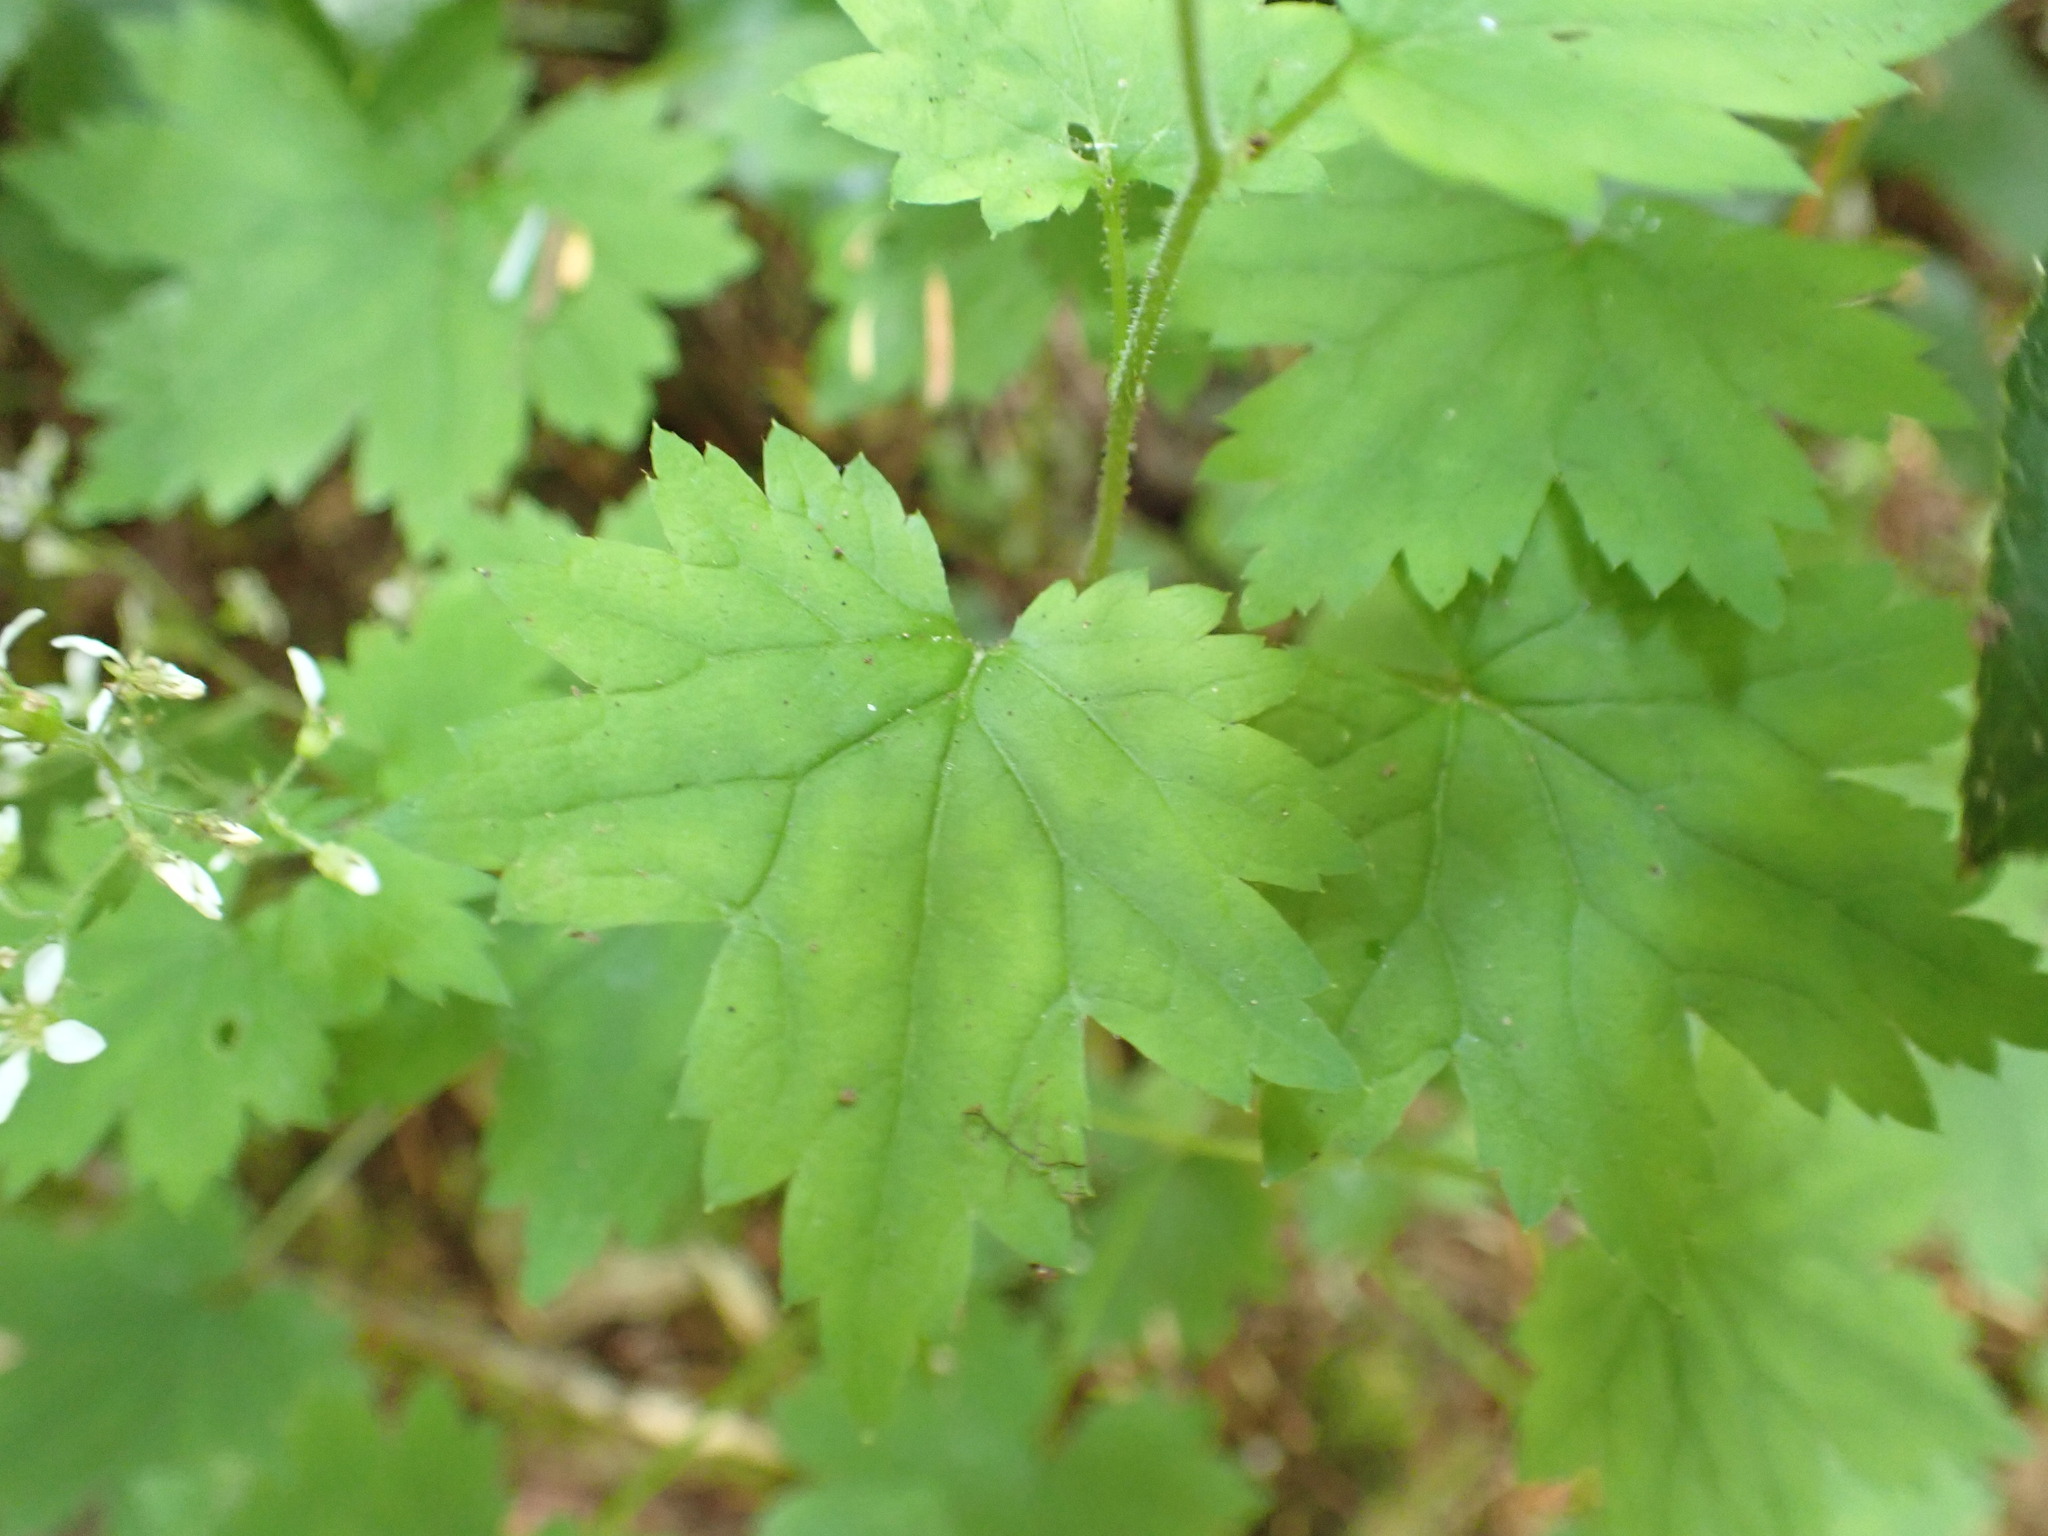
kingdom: Plantae
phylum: Tracheophyta
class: Magnoliopsida
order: Saxifragales
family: Saxifragaceae
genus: Boykinia
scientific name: Boykinia occidentalis
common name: Coast boykinia
